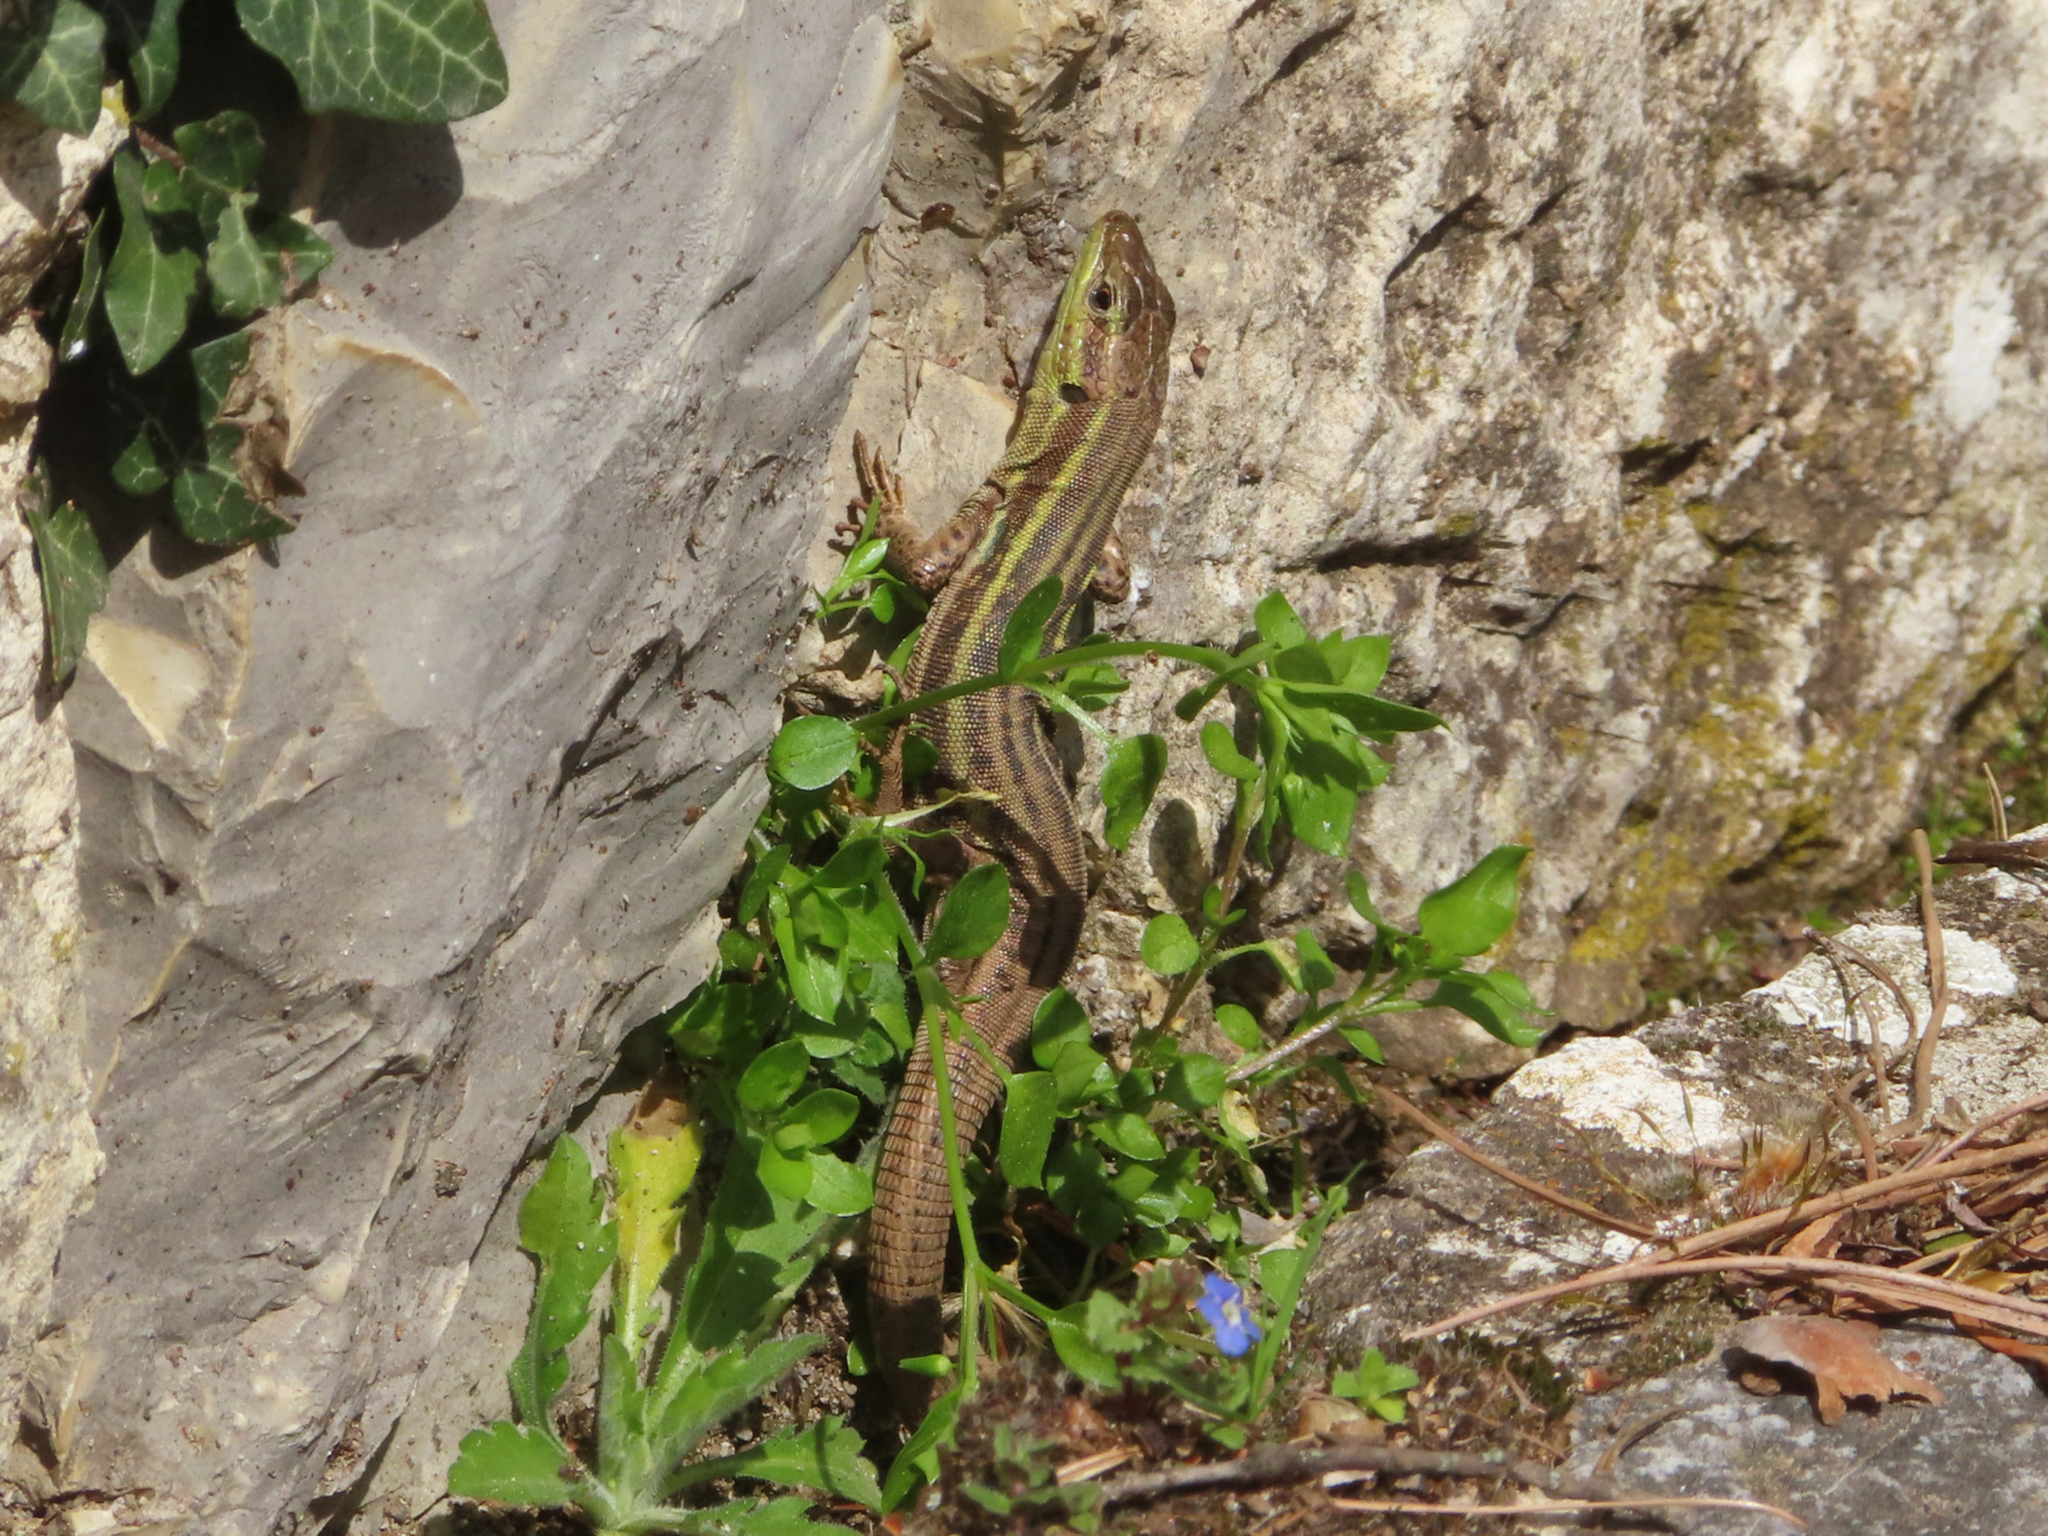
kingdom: Animalia
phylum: Chordata
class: Squamata
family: Lacertidae
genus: Podarcis
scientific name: Podarcis peloponnesiacus
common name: Peloponnese wall lizard
